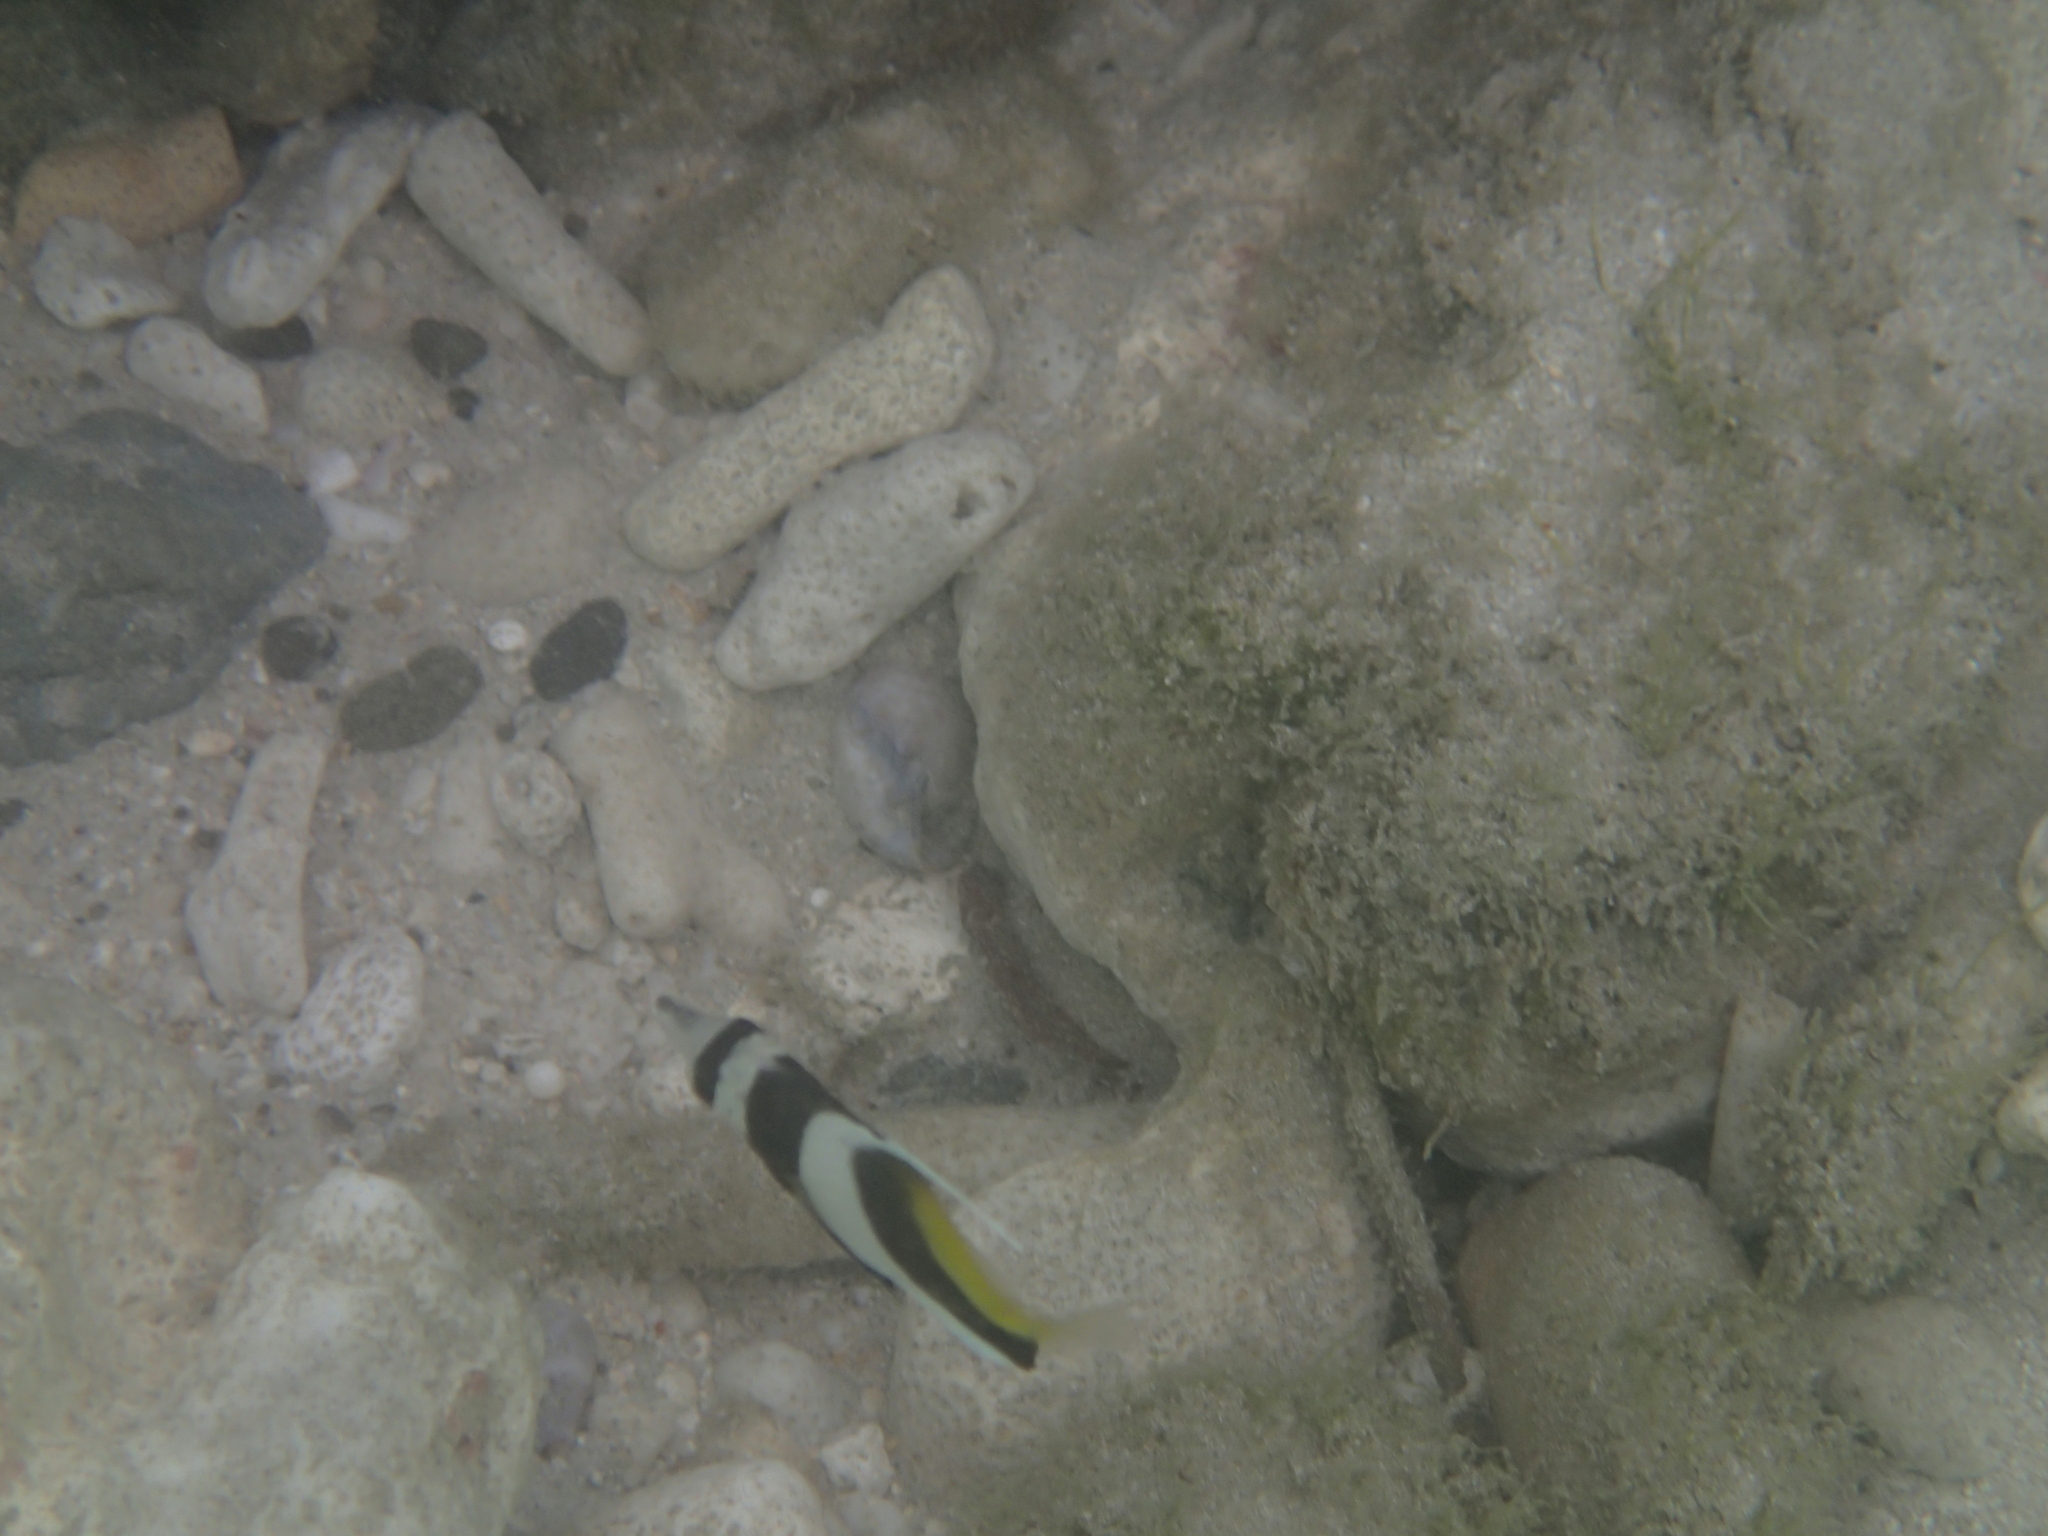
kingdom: Animalia
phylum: Chordata
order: Perciformes
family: Chaetodontidae
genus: Heniochus
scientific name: Heniochus acuminatus
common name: Pennant coralfish
